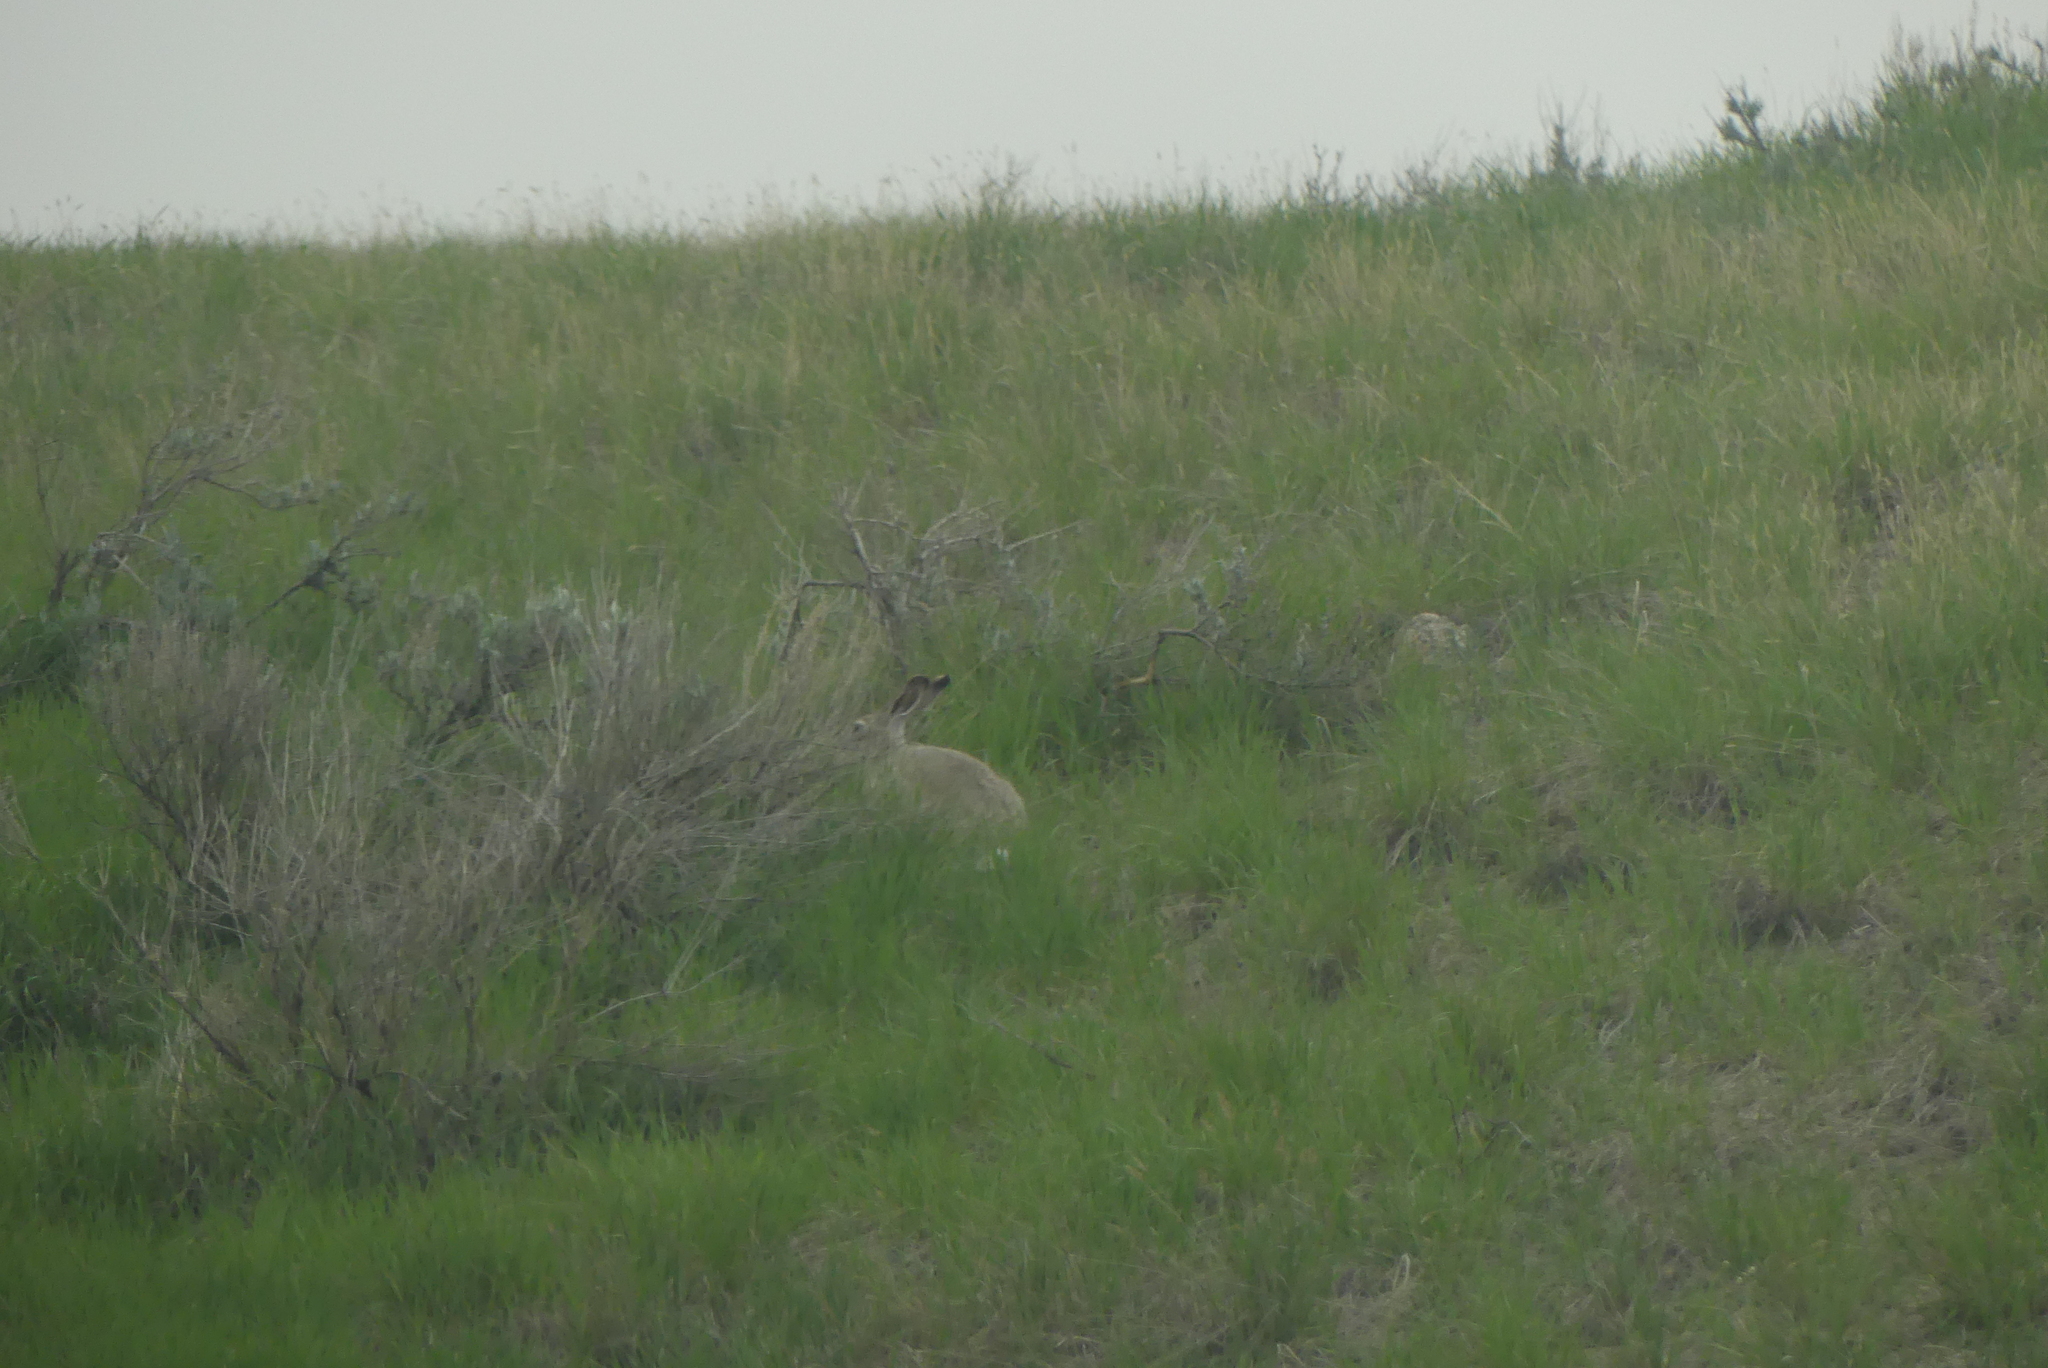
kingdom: Animalia
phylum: Chordata
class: Mammalia
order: Lagomorpha
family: Leporidae
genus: Lepus
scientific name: Lepus townsendii
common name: White-tailed jackrabbit
